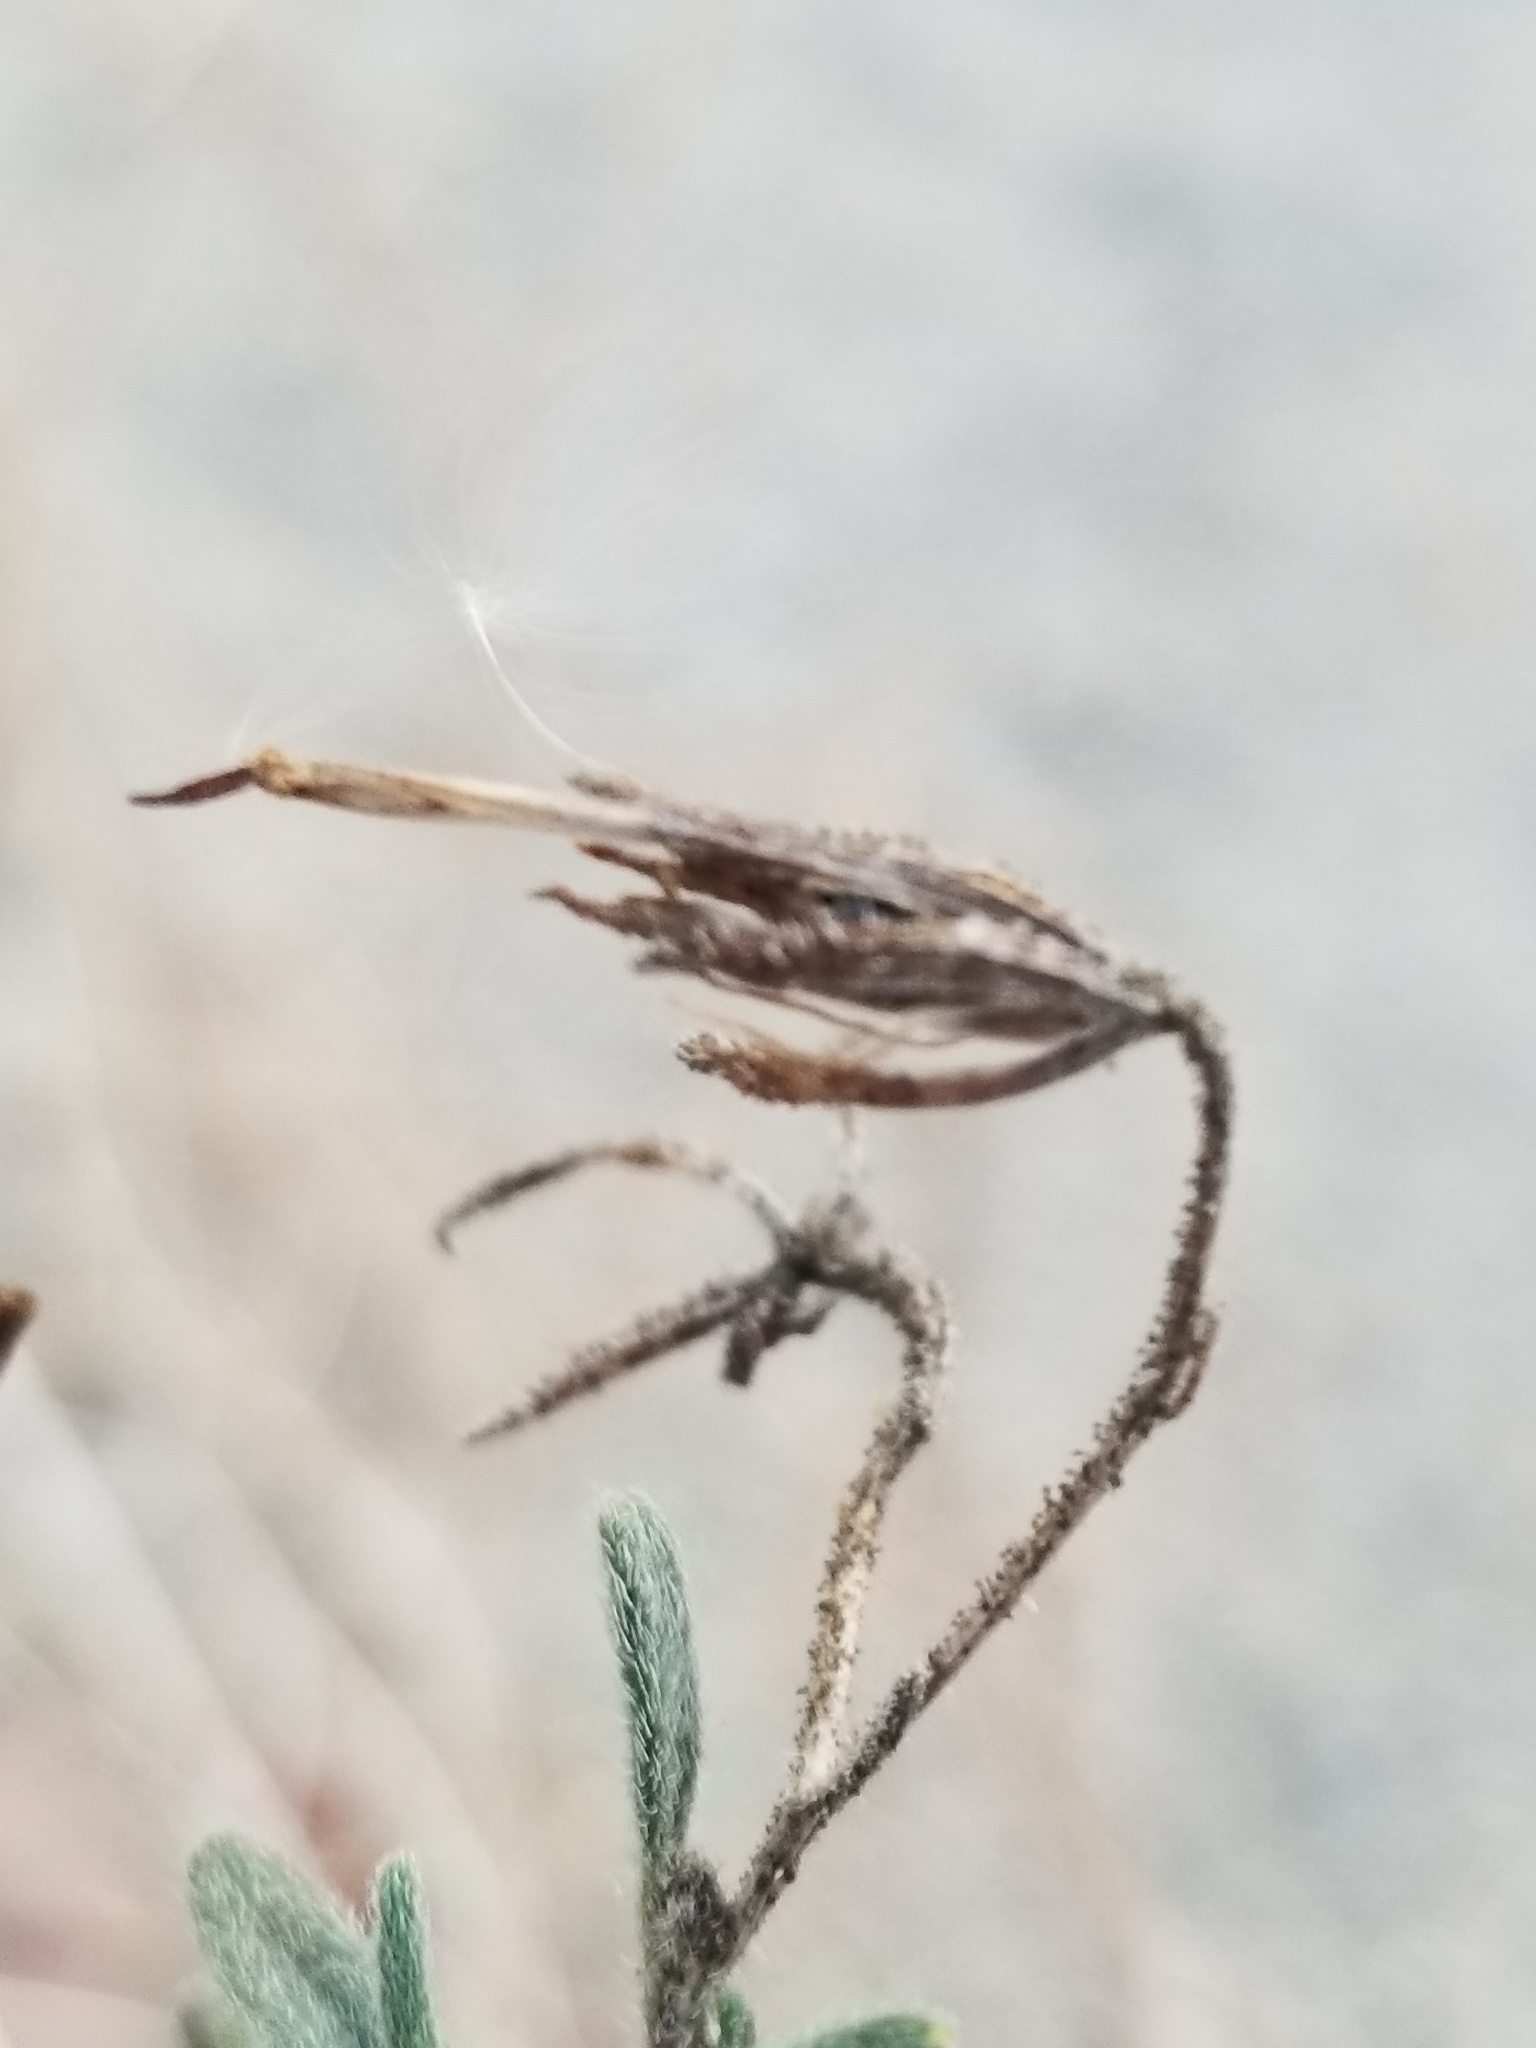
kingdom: Plantae
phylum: Tracheophyta
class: Magnoliopsida
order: Asterales
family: Asteraceae
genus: Palafoxia
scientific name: Palafoxia arida
